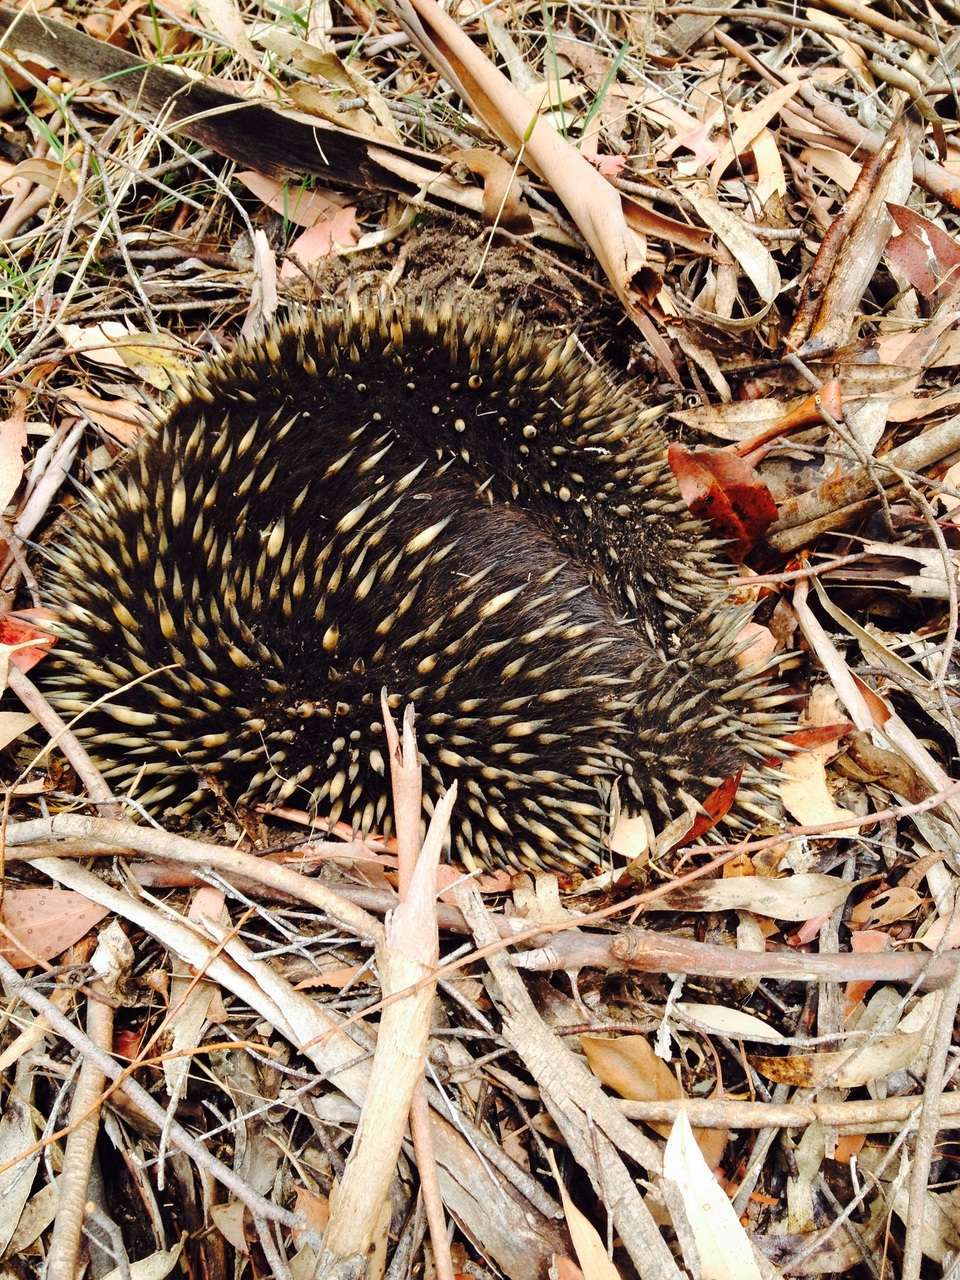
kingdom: Animalia
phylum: Chordata
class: Mammalia
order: Monotremata
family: Tachyglossidae
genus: Tachyglossus
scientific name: Tachyglossus aculeatus
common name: Short-beaked echidna
